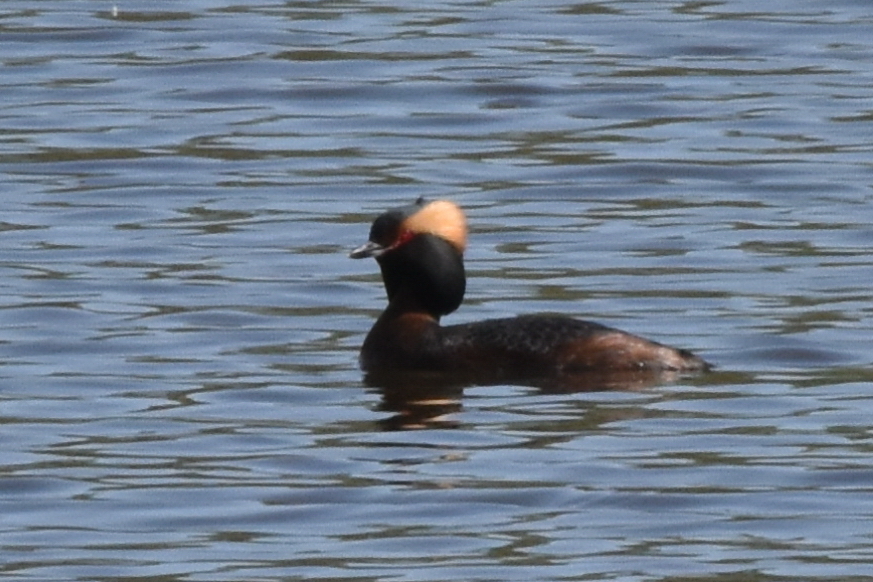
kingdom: Animalia
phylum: Chordata
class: Aves
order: Podicipediformes
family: Podicipedidae
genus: Podiceps
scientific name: Podiceps auritus
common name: Horned grebe
